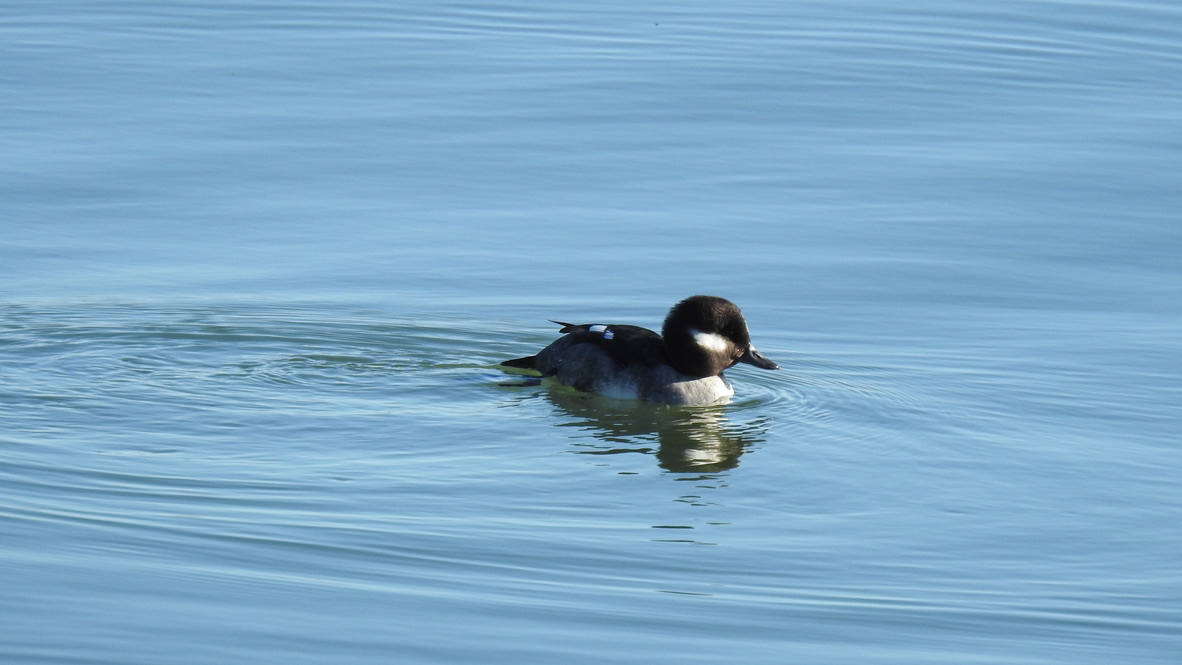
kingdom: Animalia
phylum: Chordata
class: Aves
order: Anseriformes
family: Anatidae
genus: Bucephala
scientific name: Bucephala albeola
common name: Bufflehead
